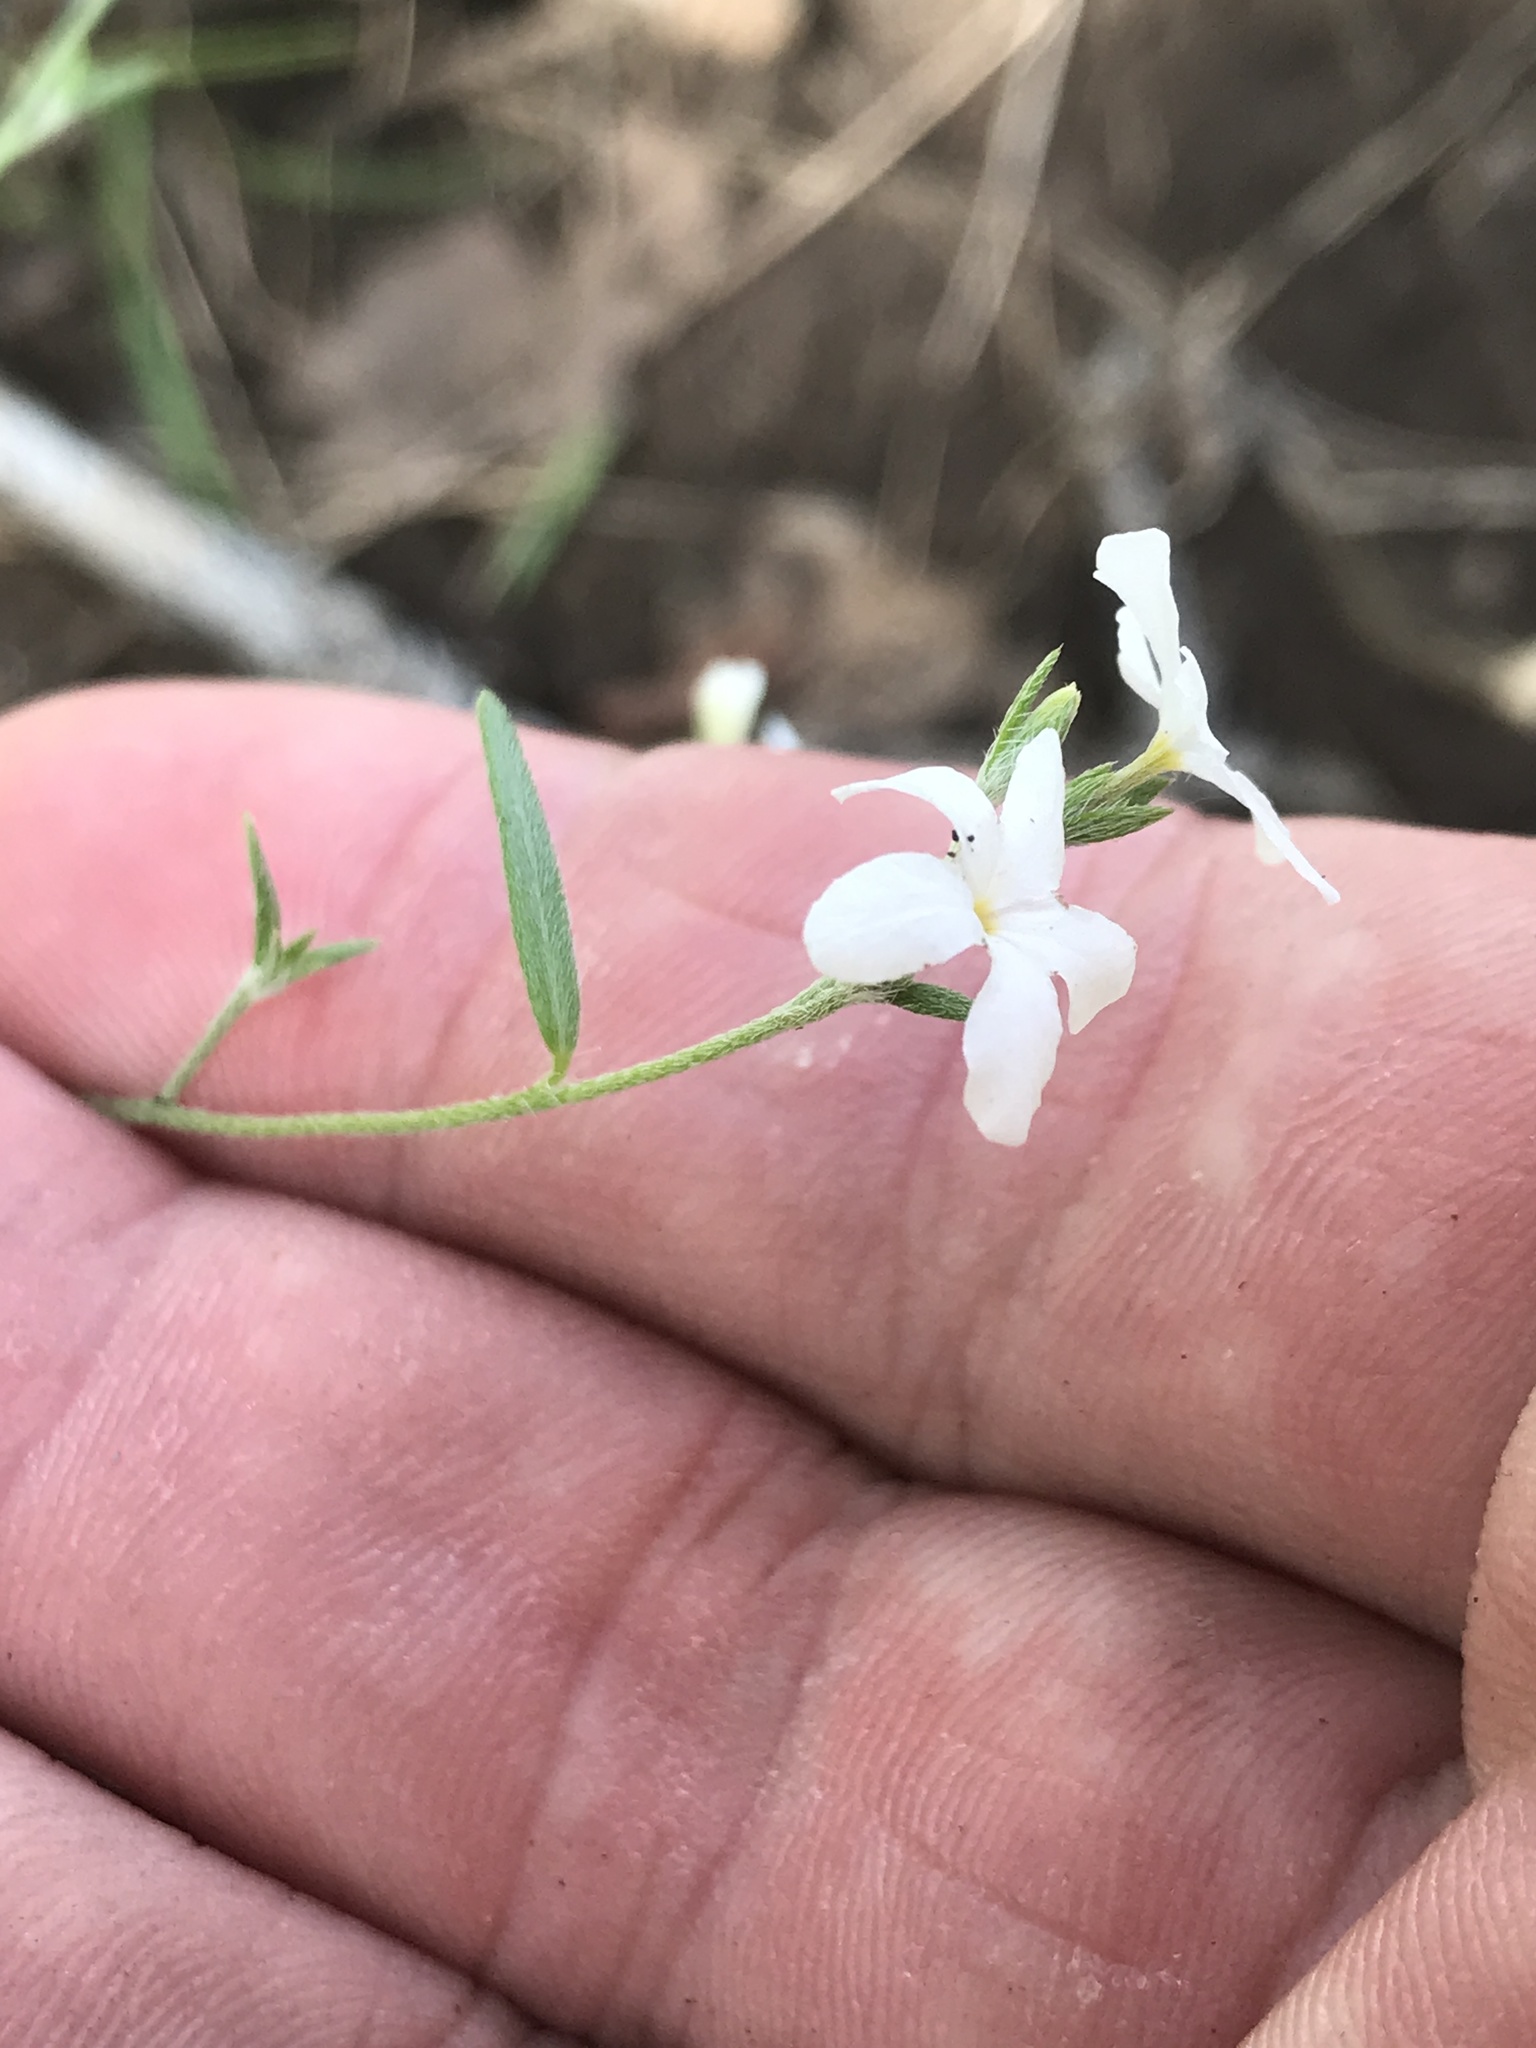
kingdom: Plantae
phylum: Tracheophyta
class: Magnoliopsida
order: Boraginales
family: Heliotropiaceae
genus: Euploca
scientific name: Euploca tenella
